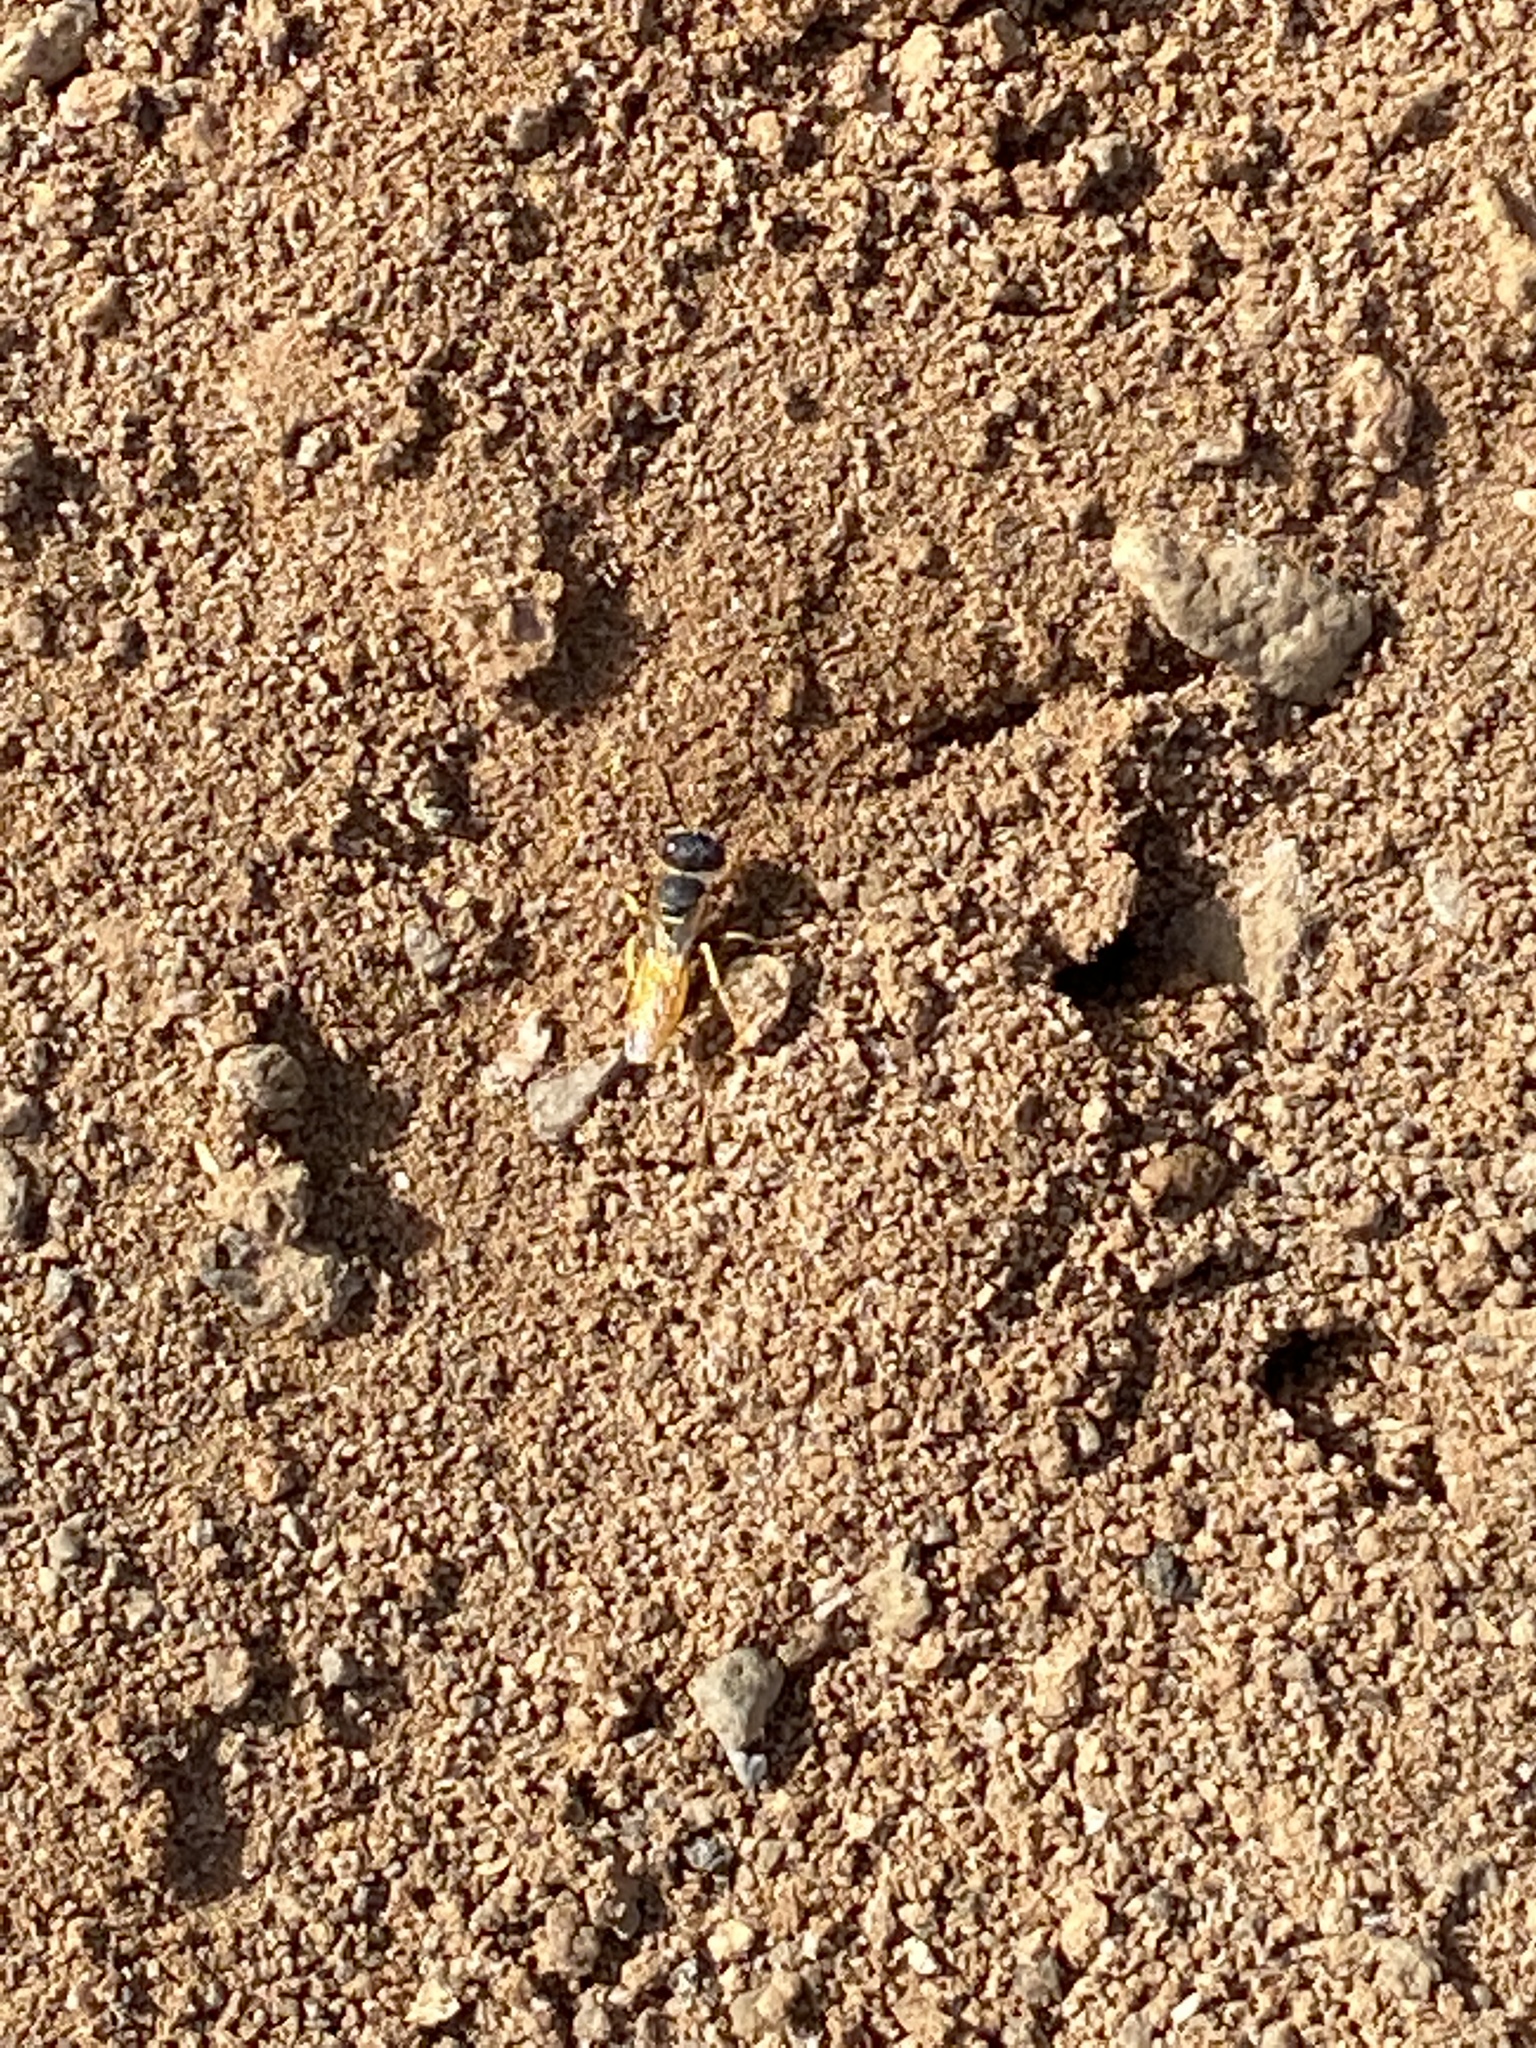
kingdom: Animalia
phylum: Arthropoda
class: Insecta
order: Hymenoptera
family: Crabronidae
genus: Philanthus
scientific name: Philanthus triangulum
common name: Bee wolf
